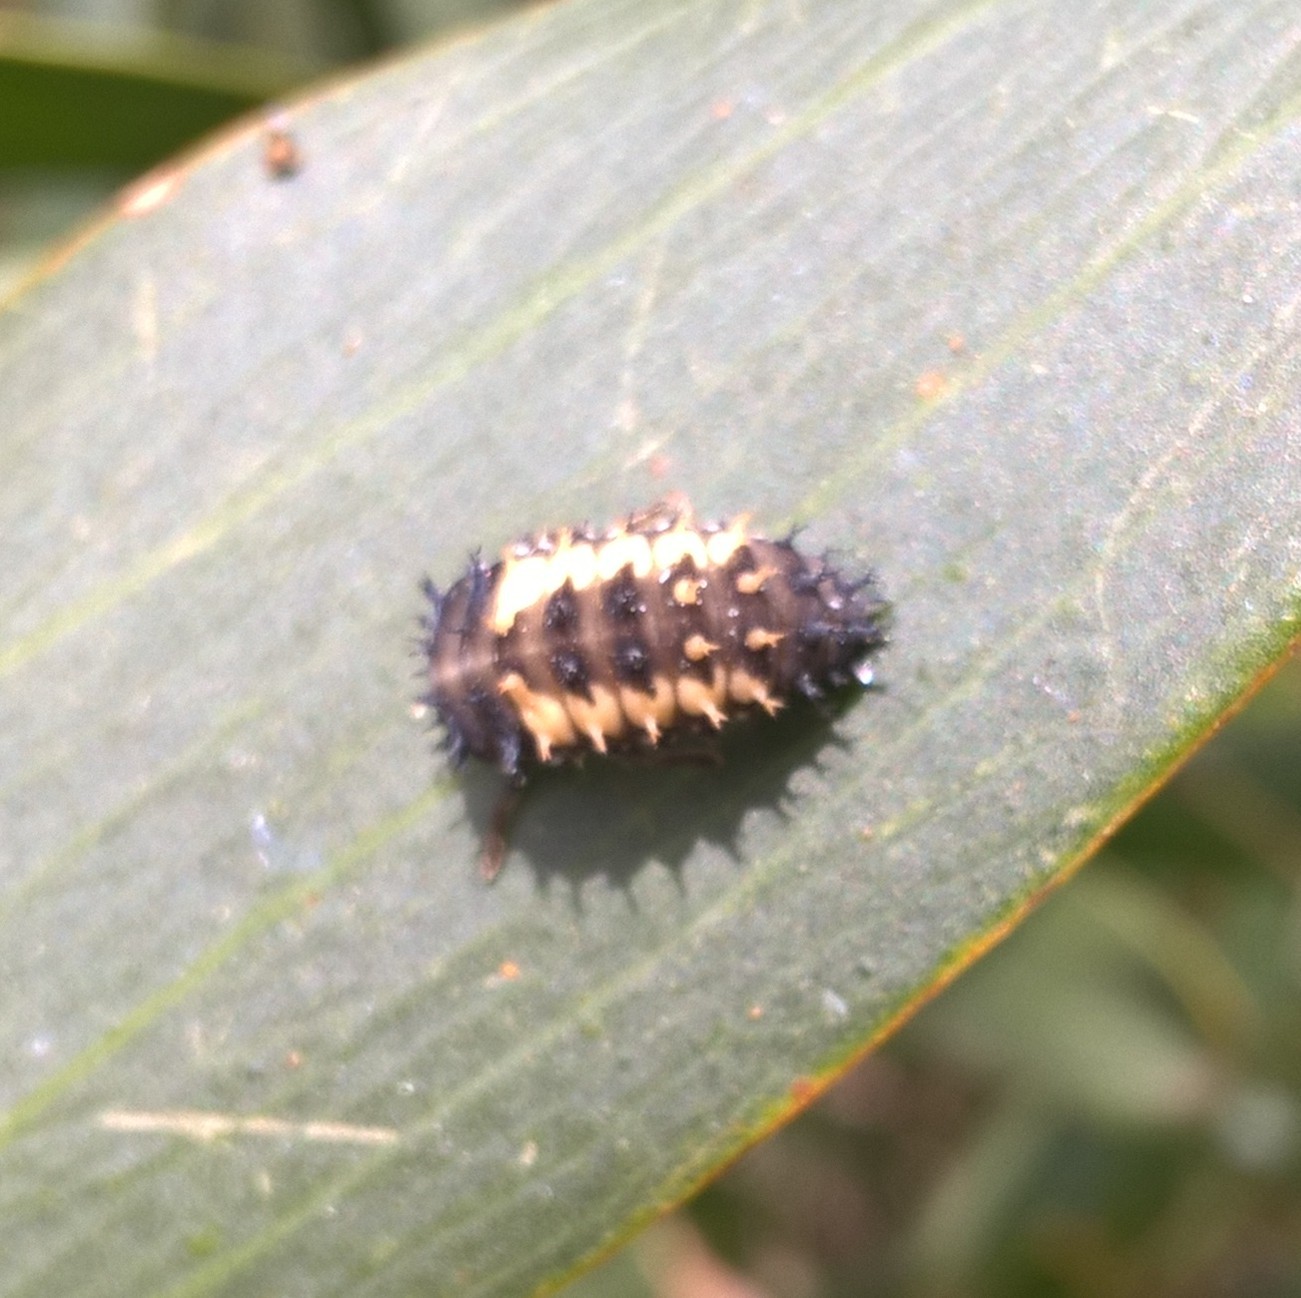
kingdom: Animalia
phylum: Arthropoda
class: Insecta
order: Coleoptera
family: Coccinellidae
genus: Harmonia
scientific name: Harmonia axyridis
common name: Harlequin ladybird
